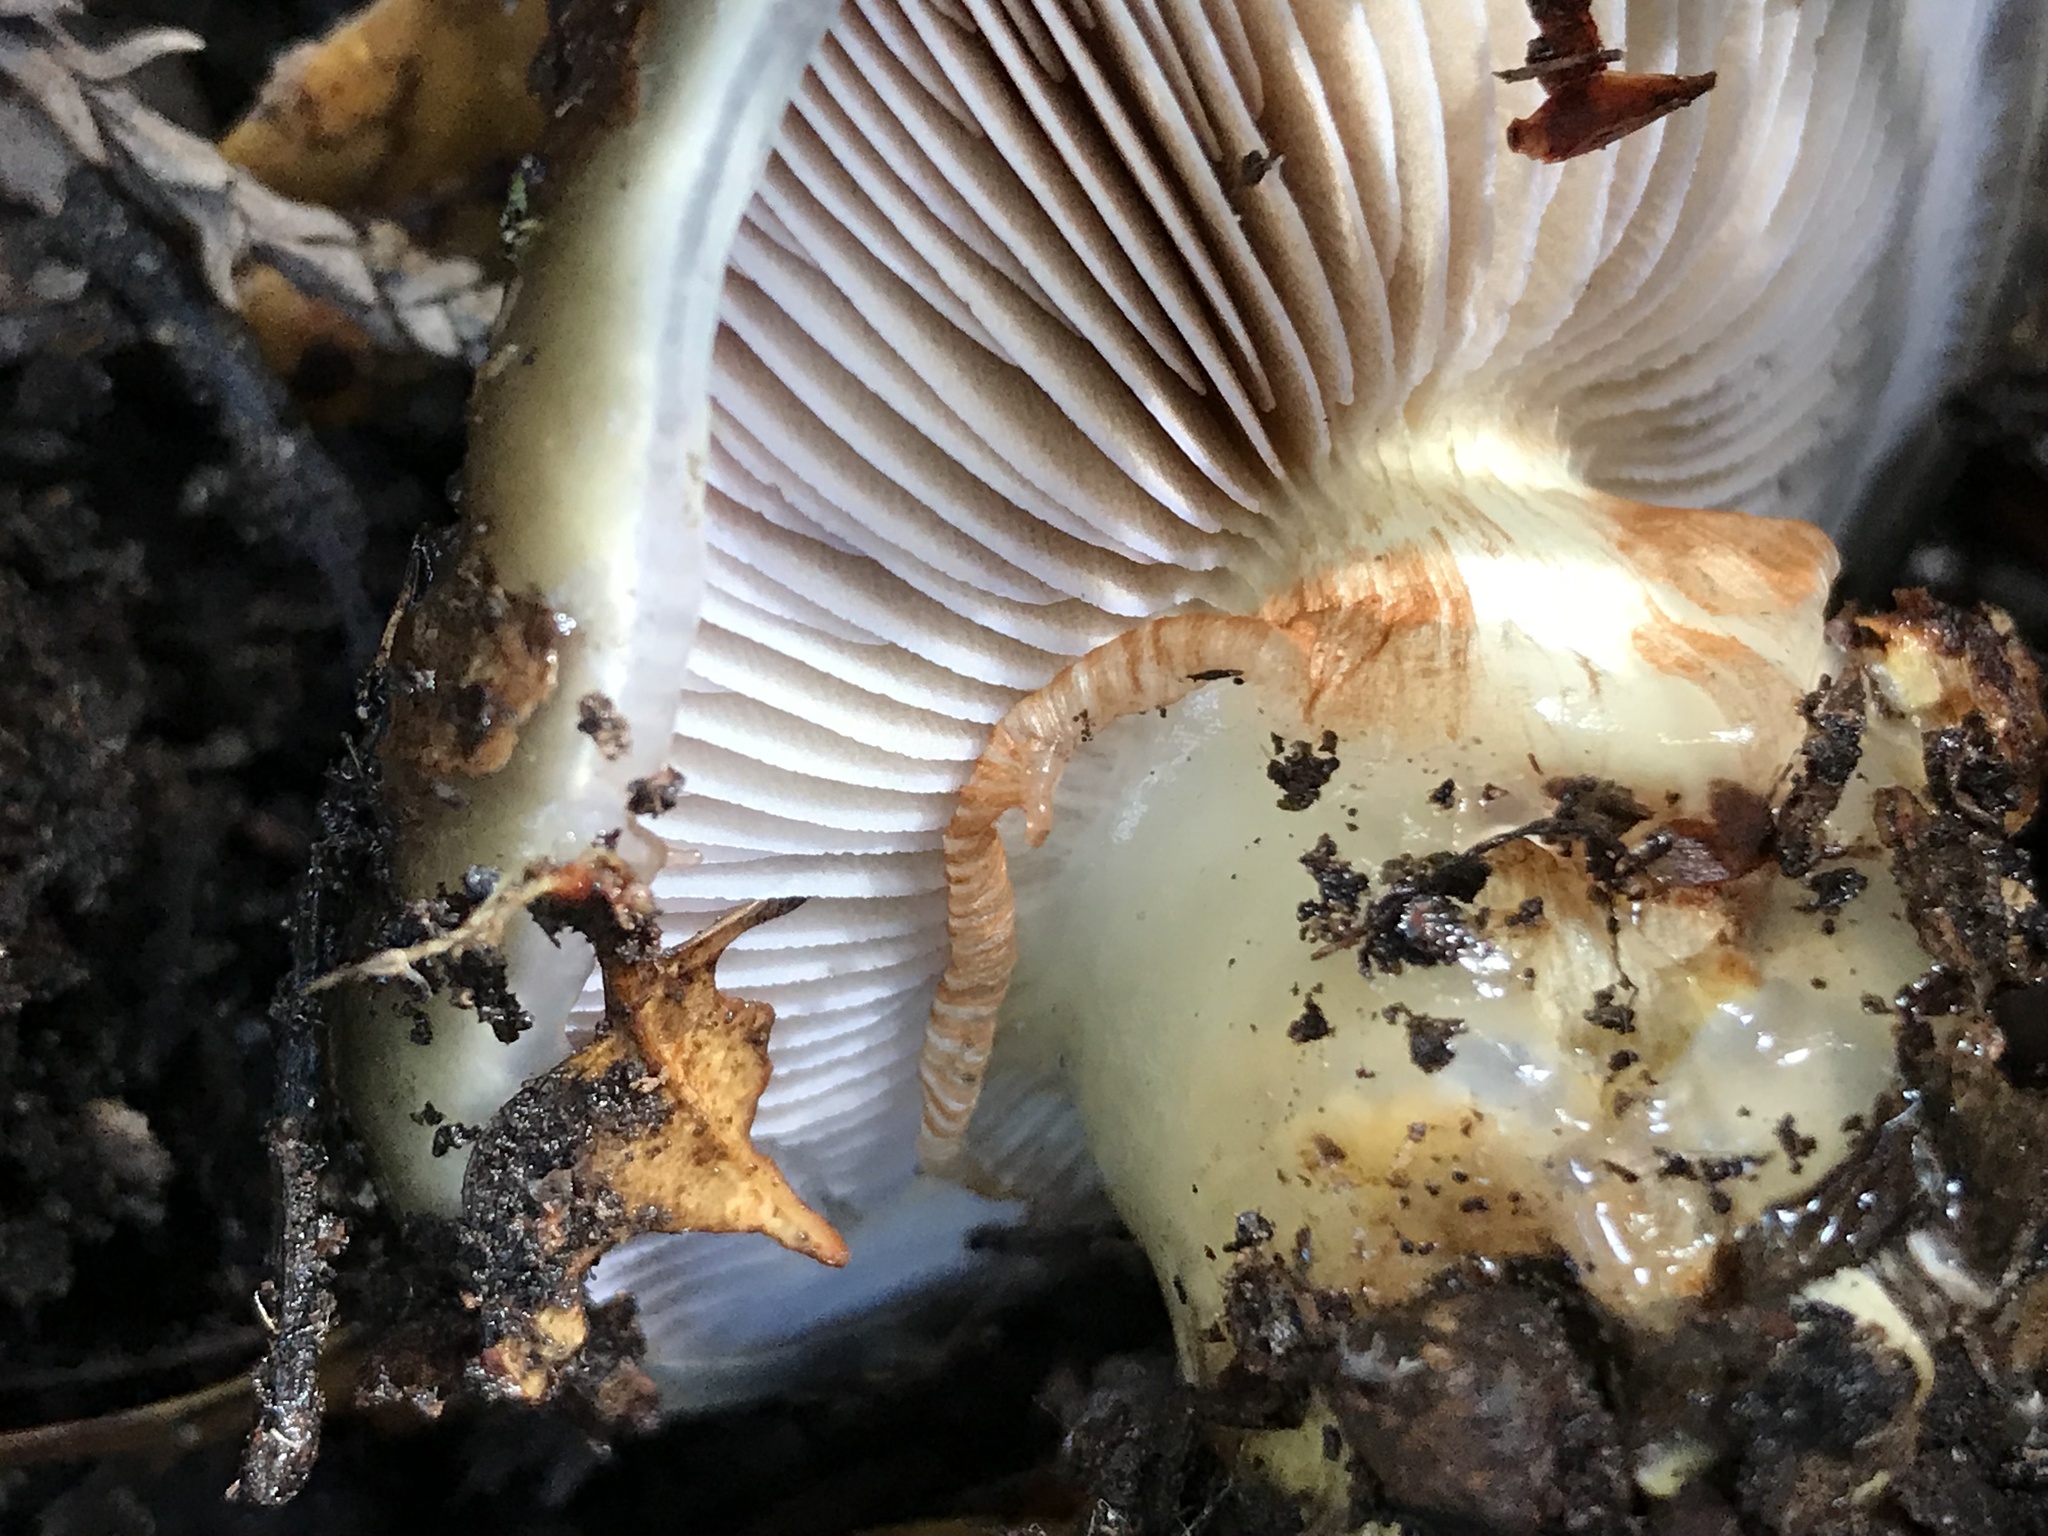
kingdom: Fungi
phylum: Basidiomycota
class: Agaricomycetes
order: Agaricales
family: Cortinariaceae
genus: Cortinarius
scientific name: Cortinarius glutinosoarmillatus
